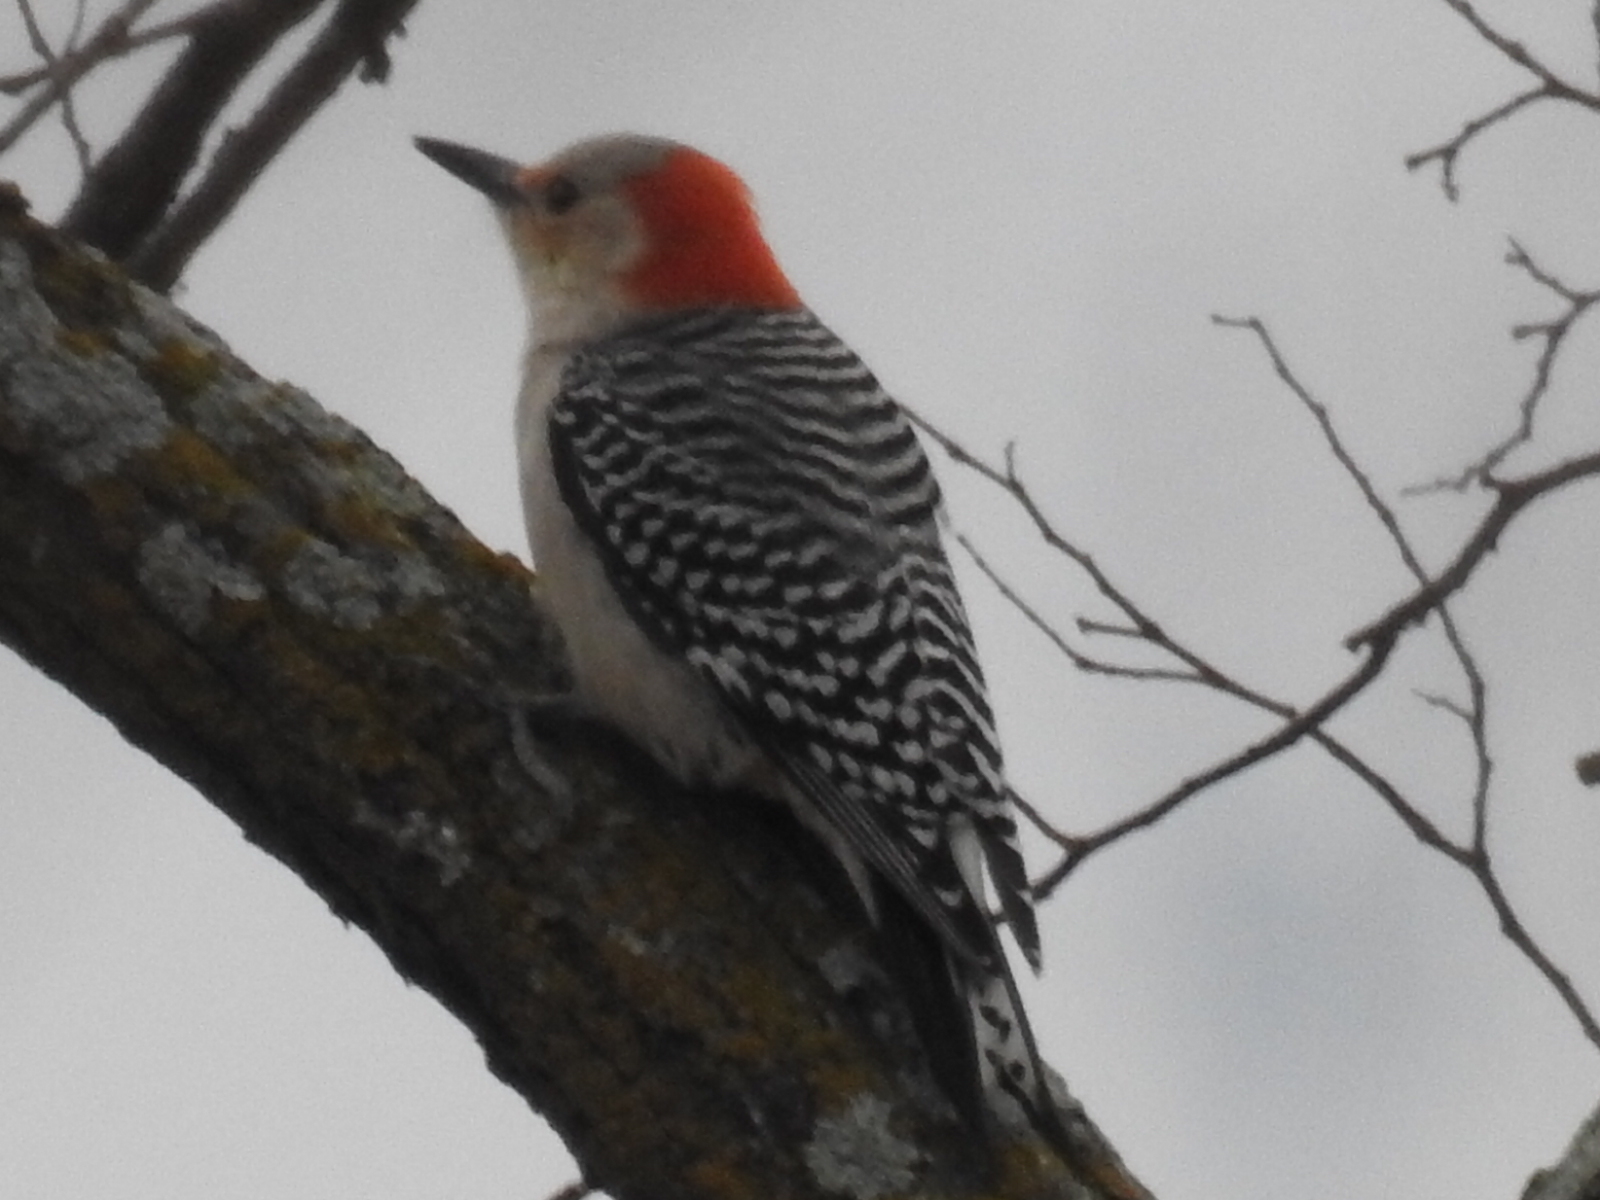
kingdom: Animalia
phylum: Chordata
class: Aves
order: Piciformes
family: Picidae
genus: Melanerpes
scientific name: Melanerpes carolinus
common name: Red-bellied woodpecker
